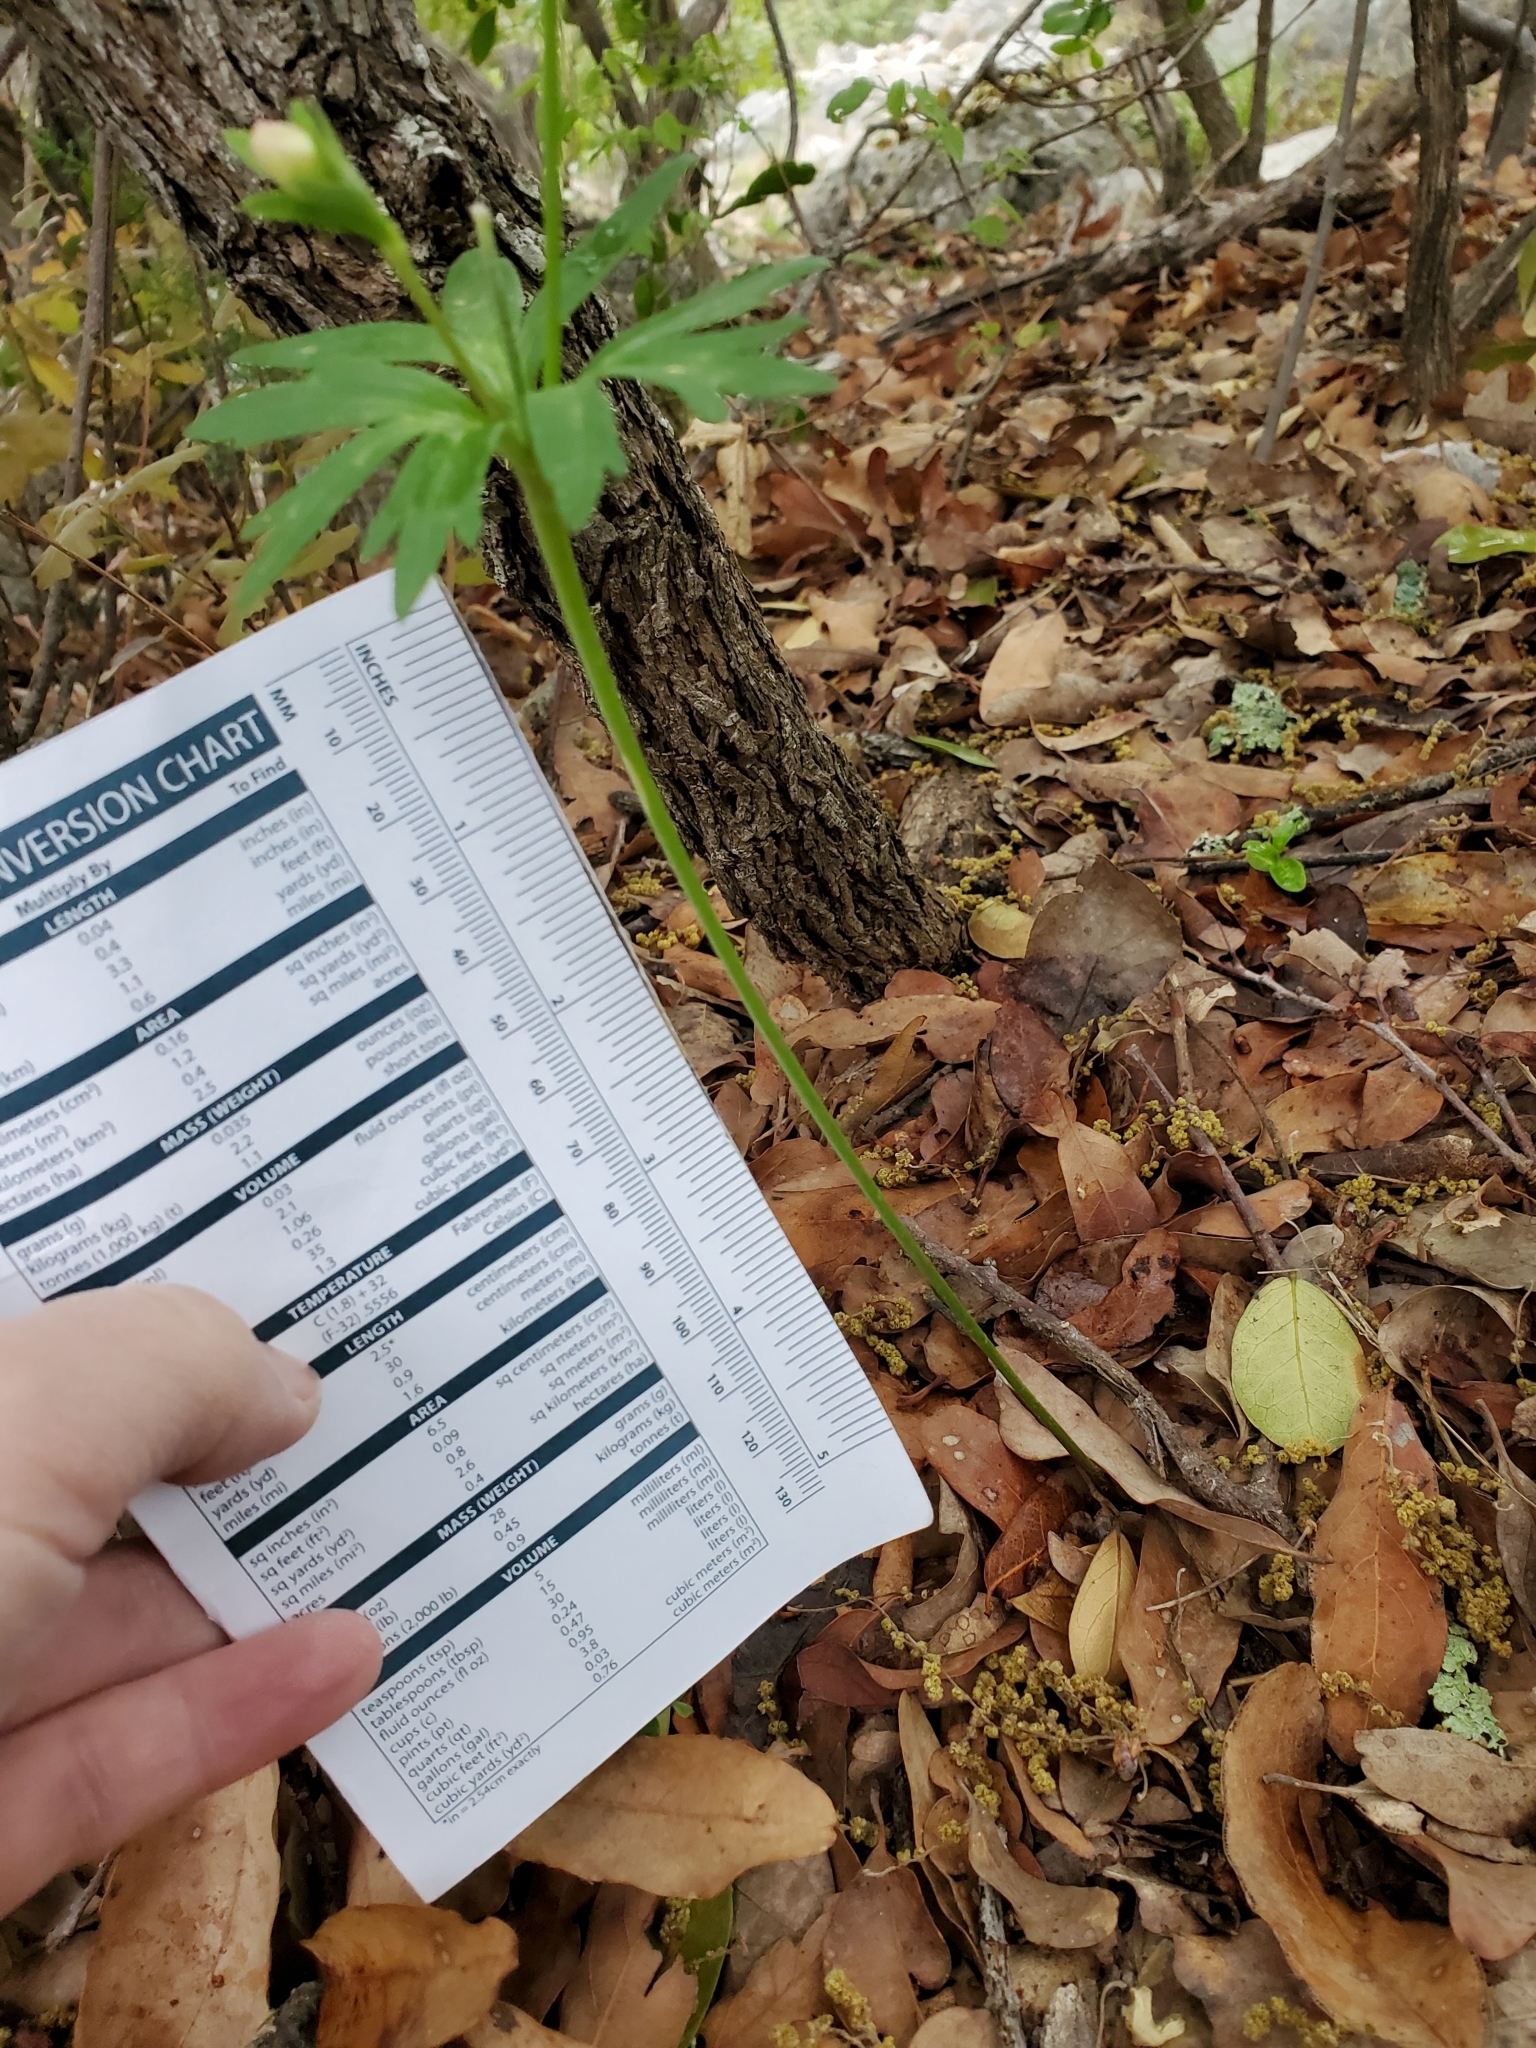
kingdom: Plantae
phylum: Tracheophyta
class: Magnoliopsida
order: Ranunculales
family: Ranunculaceae
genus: Anemone
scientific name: Anemone edwardsiana
